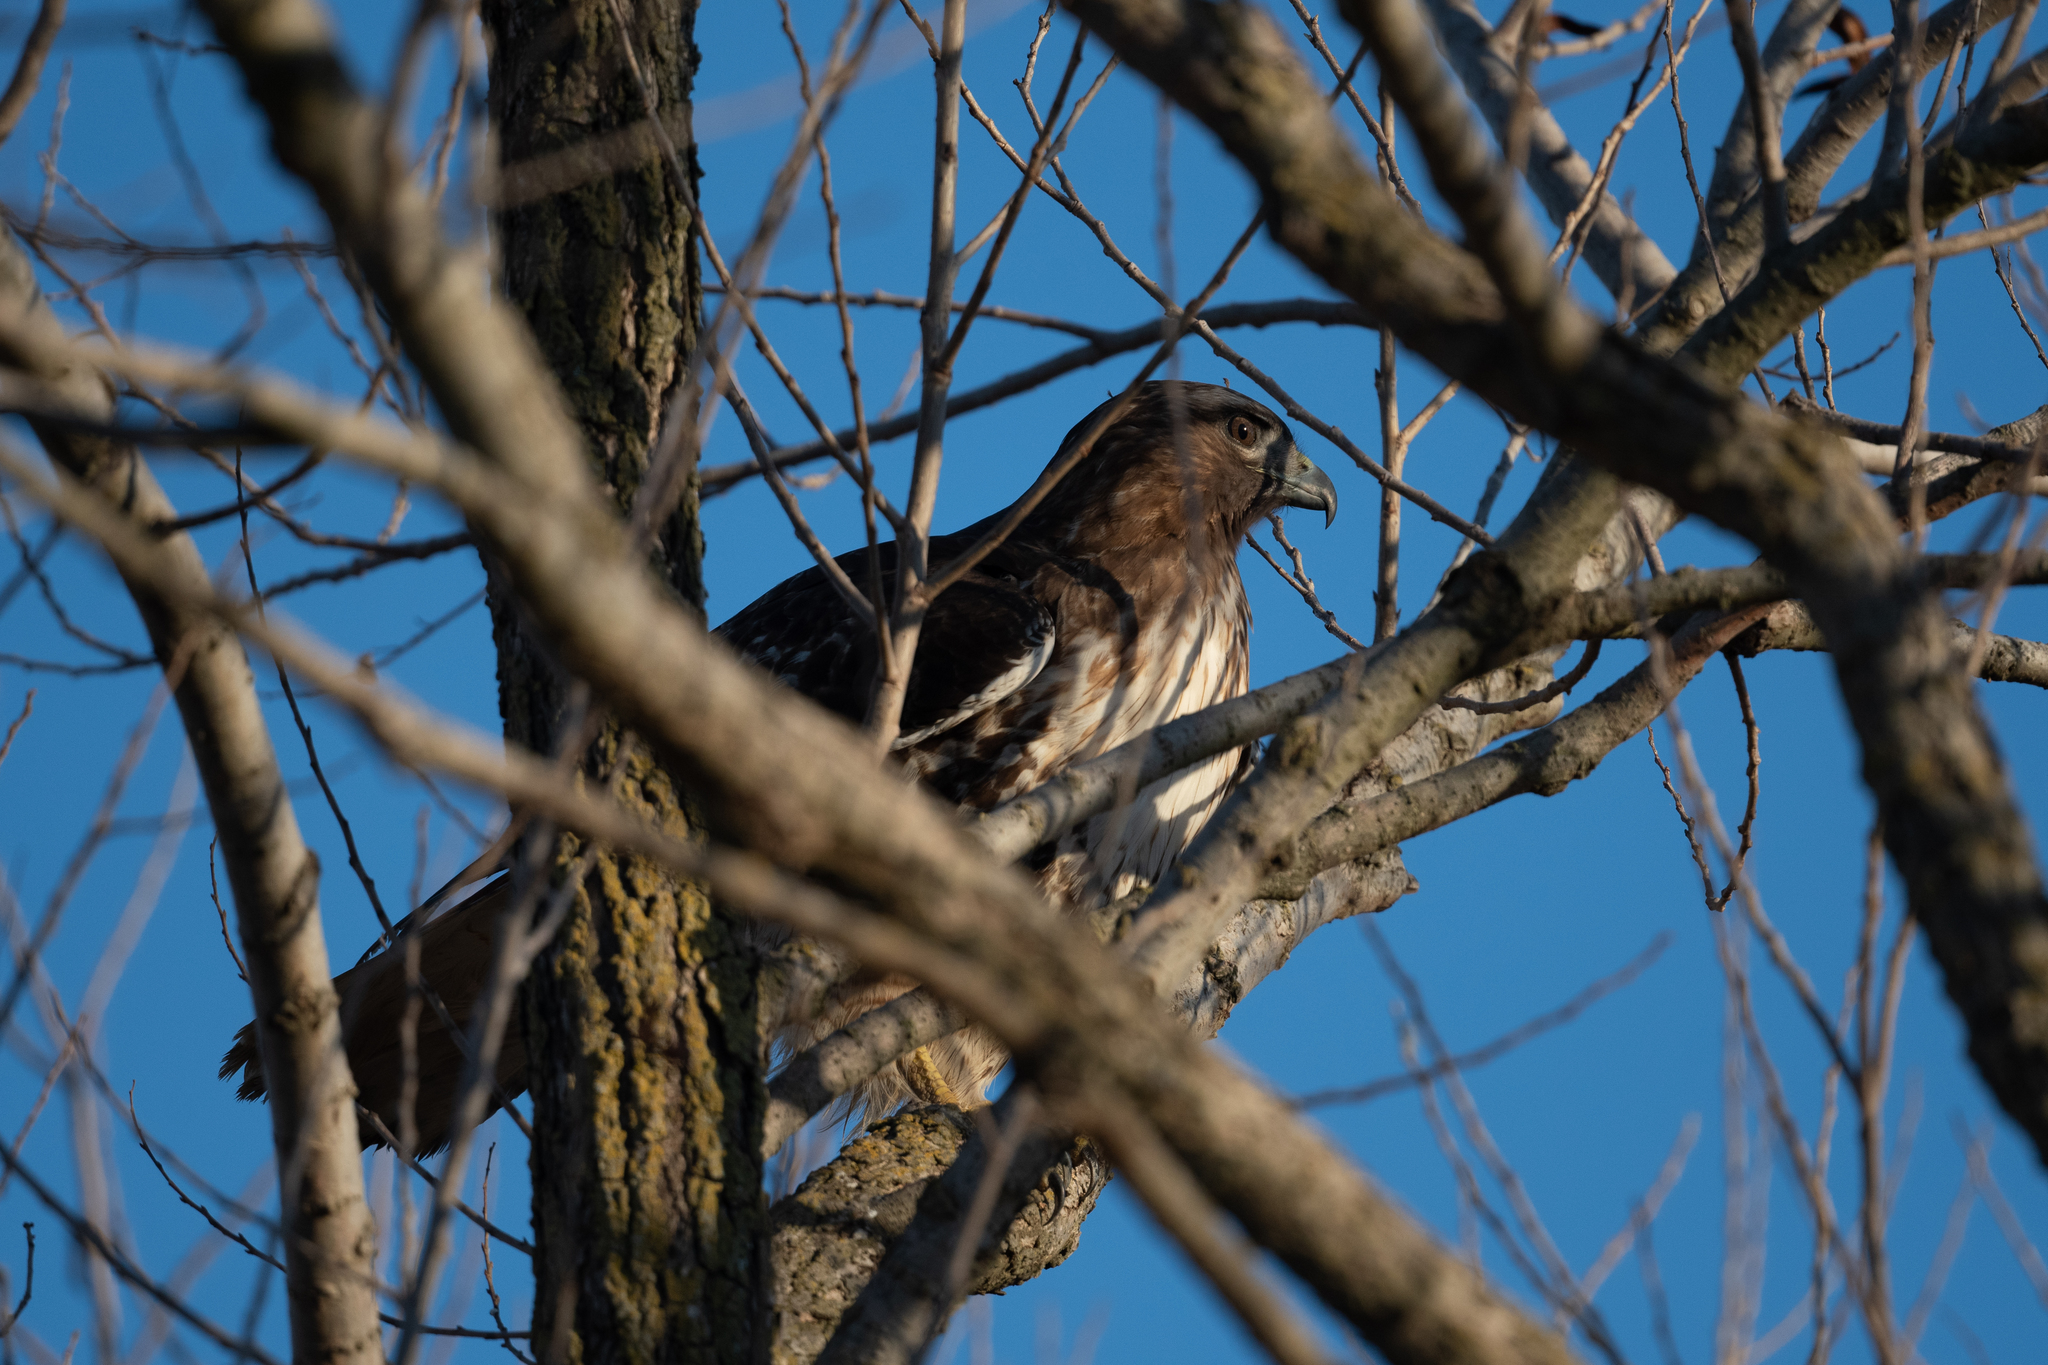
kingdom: Animalia
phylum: Chordata
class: Aves
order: Accipitriformes
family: Accipitridae
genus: Buteo
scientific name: Buteo jamaicensis
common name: Red-tailed hawk
